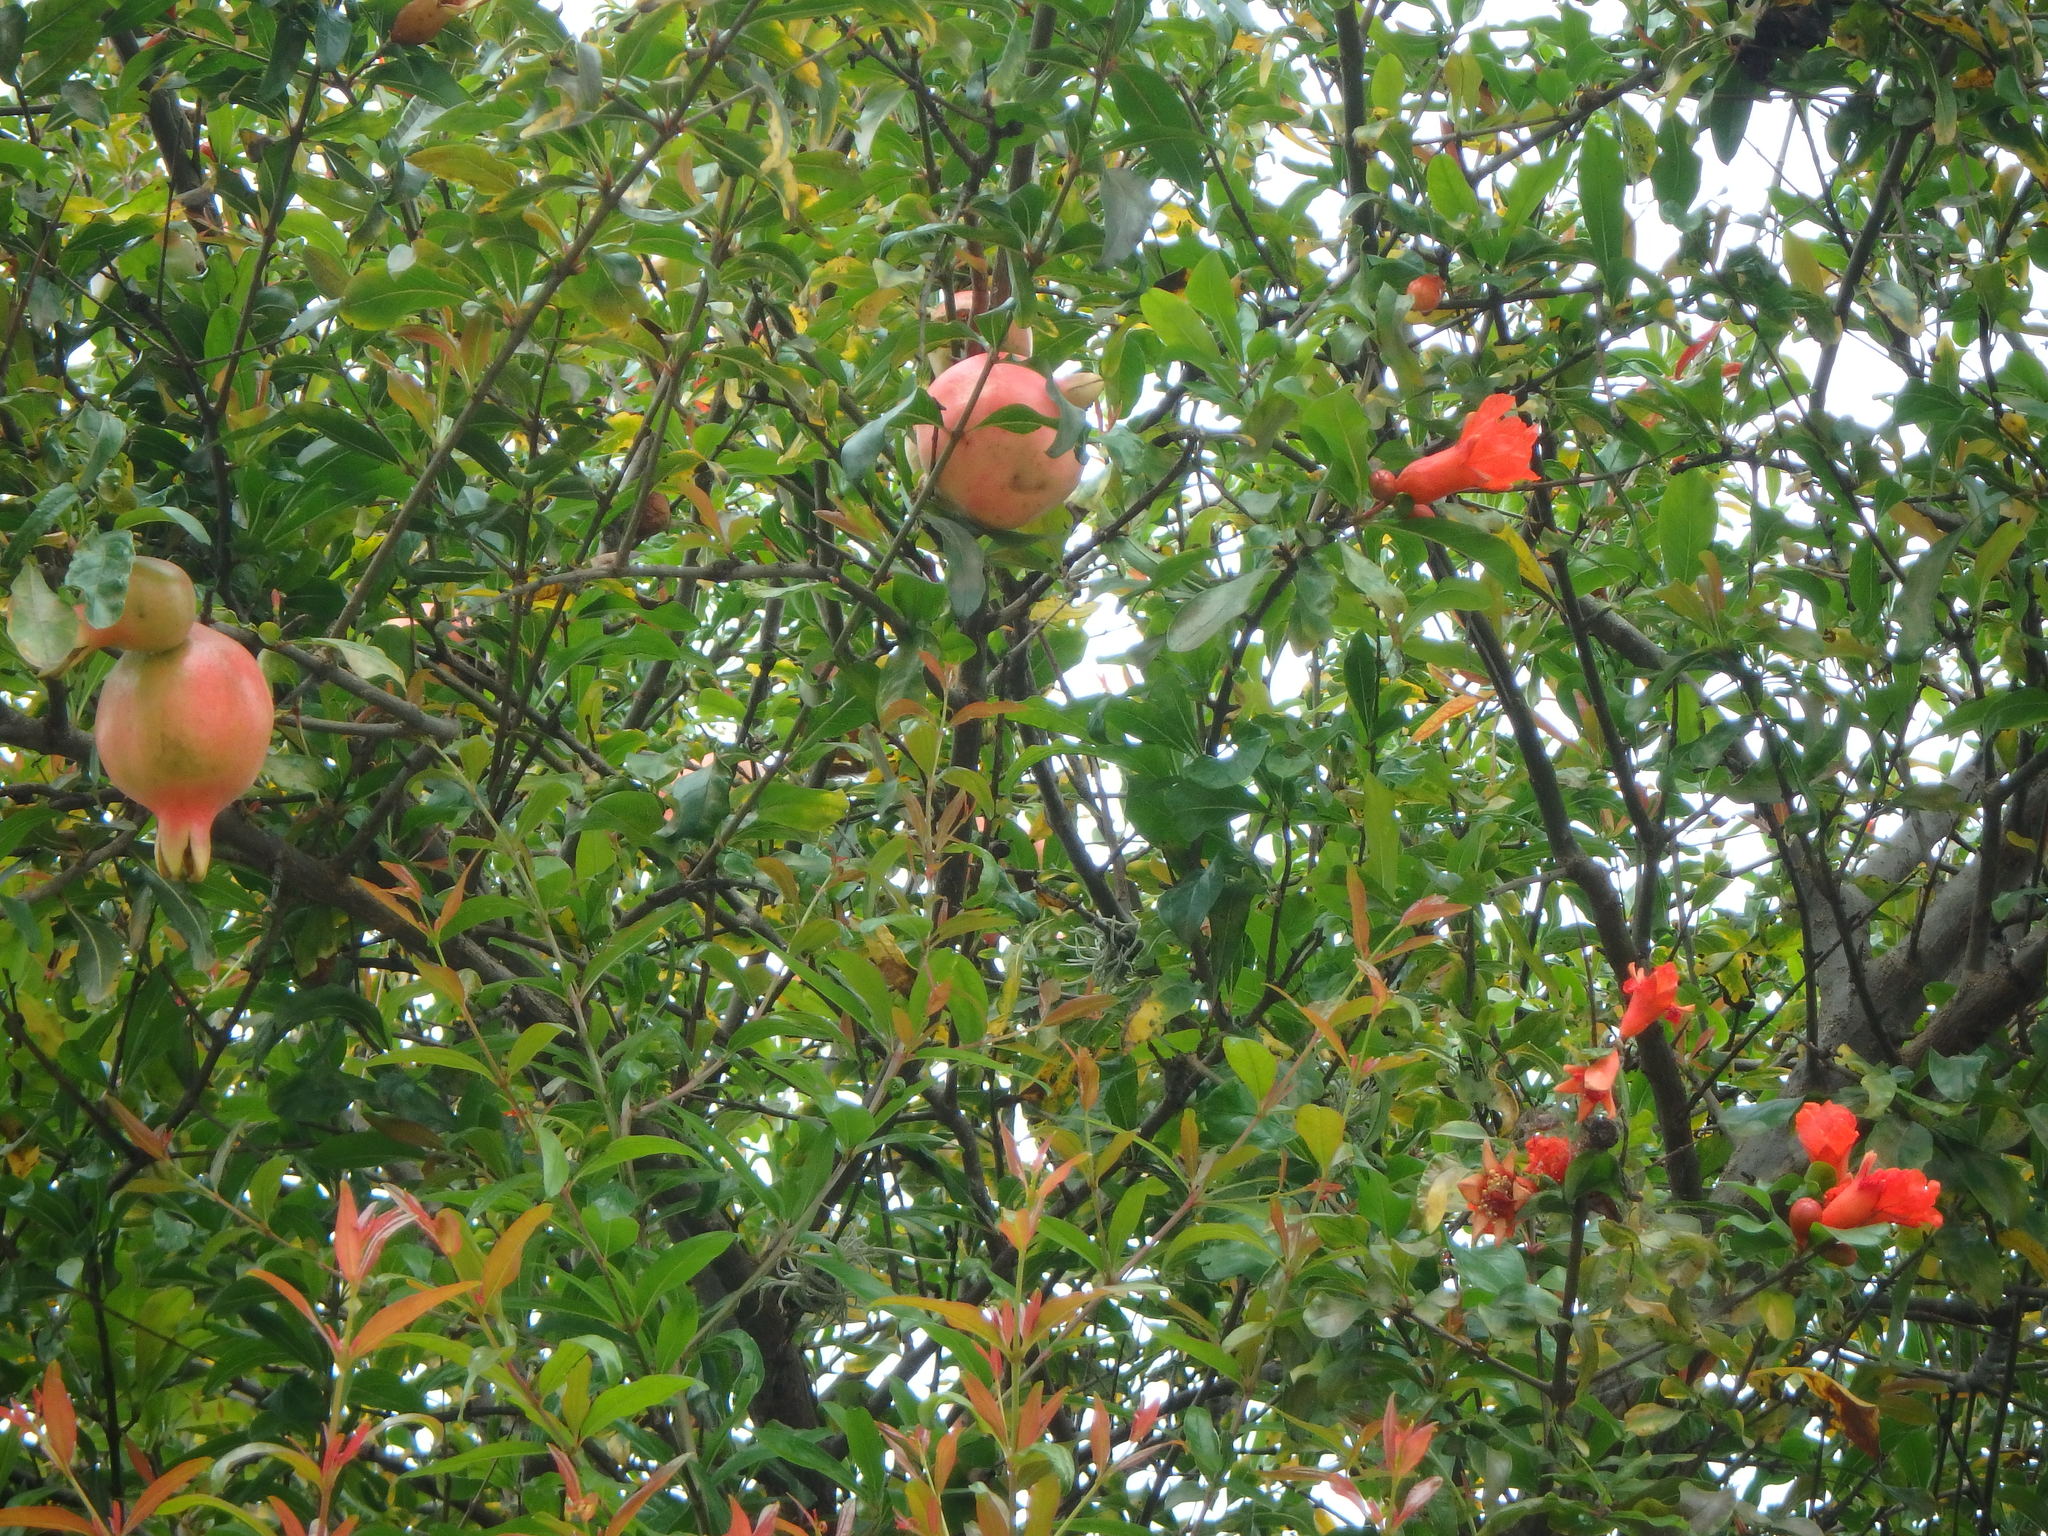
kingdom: Plantae
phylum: Tracheophyta
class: Magnoliopsida
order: Myrtales
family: Lythraceae
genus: Punica
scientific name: Punica granatum
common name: Pomegranate
